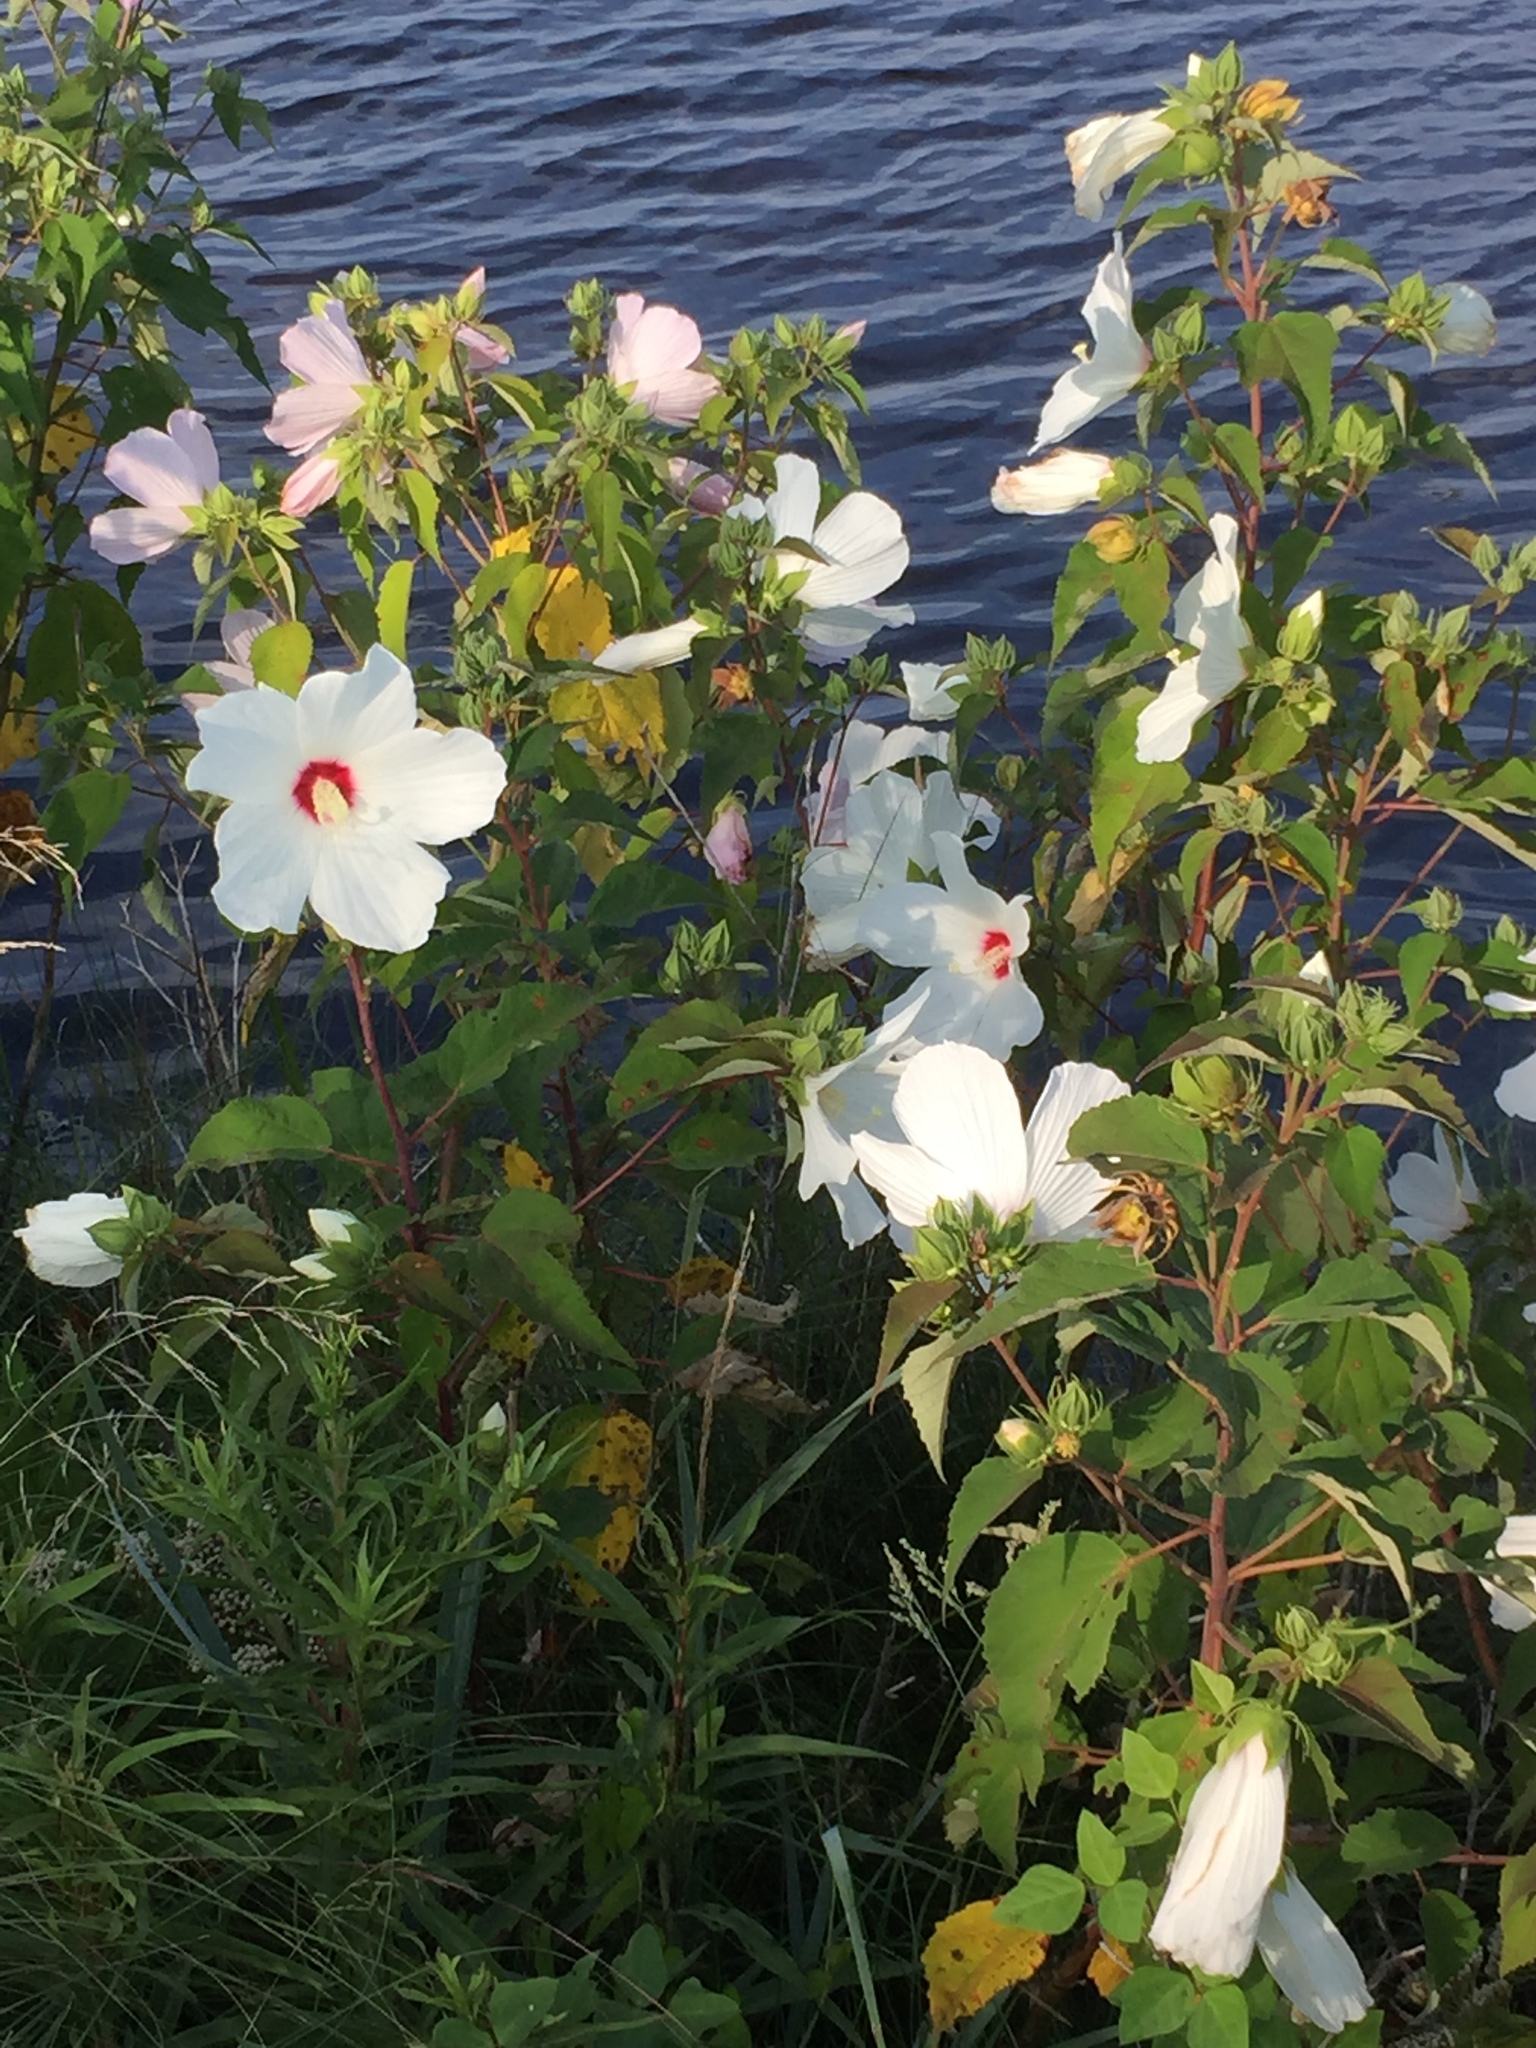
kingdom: Plantae
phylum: Tracheophyta
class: Magnoliopsida
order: Malvales
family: Malvaceae
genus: Hibiscus
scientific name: Hibiscus moscheutos
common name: Common rose-mallow
